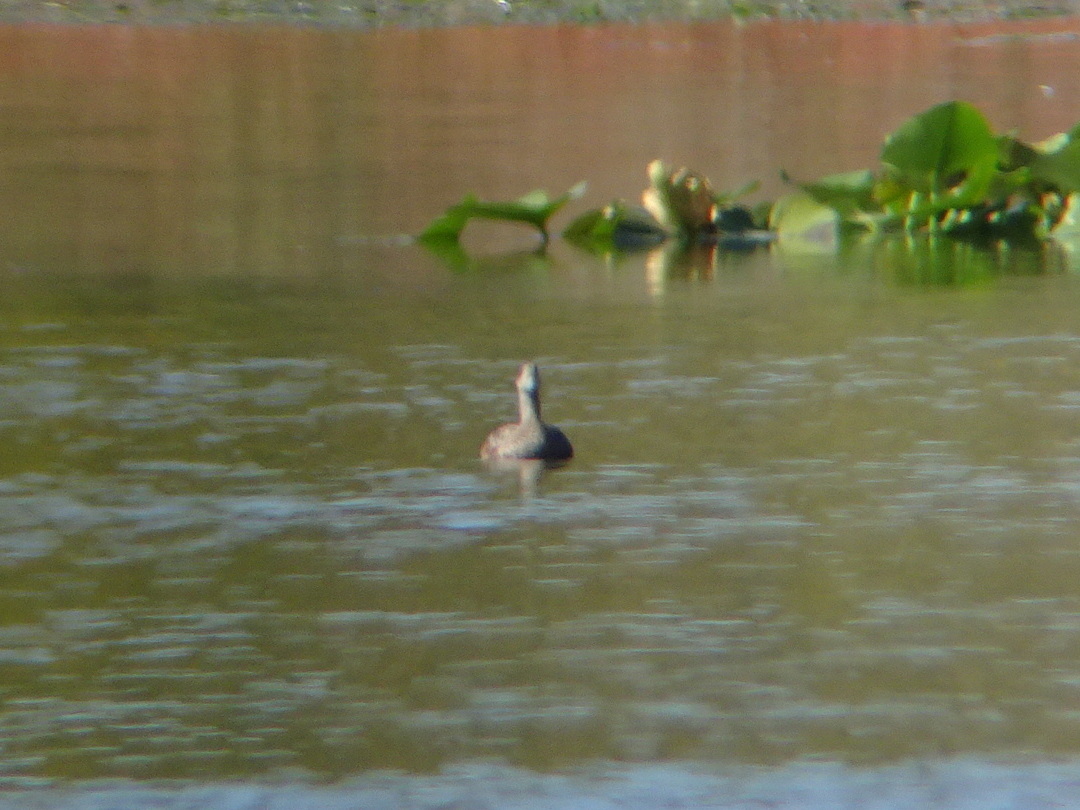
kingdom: Animalia
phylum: Chordata
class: Aves
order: Anseriformes
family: Anatidae
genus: Mareca
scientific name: Mareca americana
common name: American wigeon
